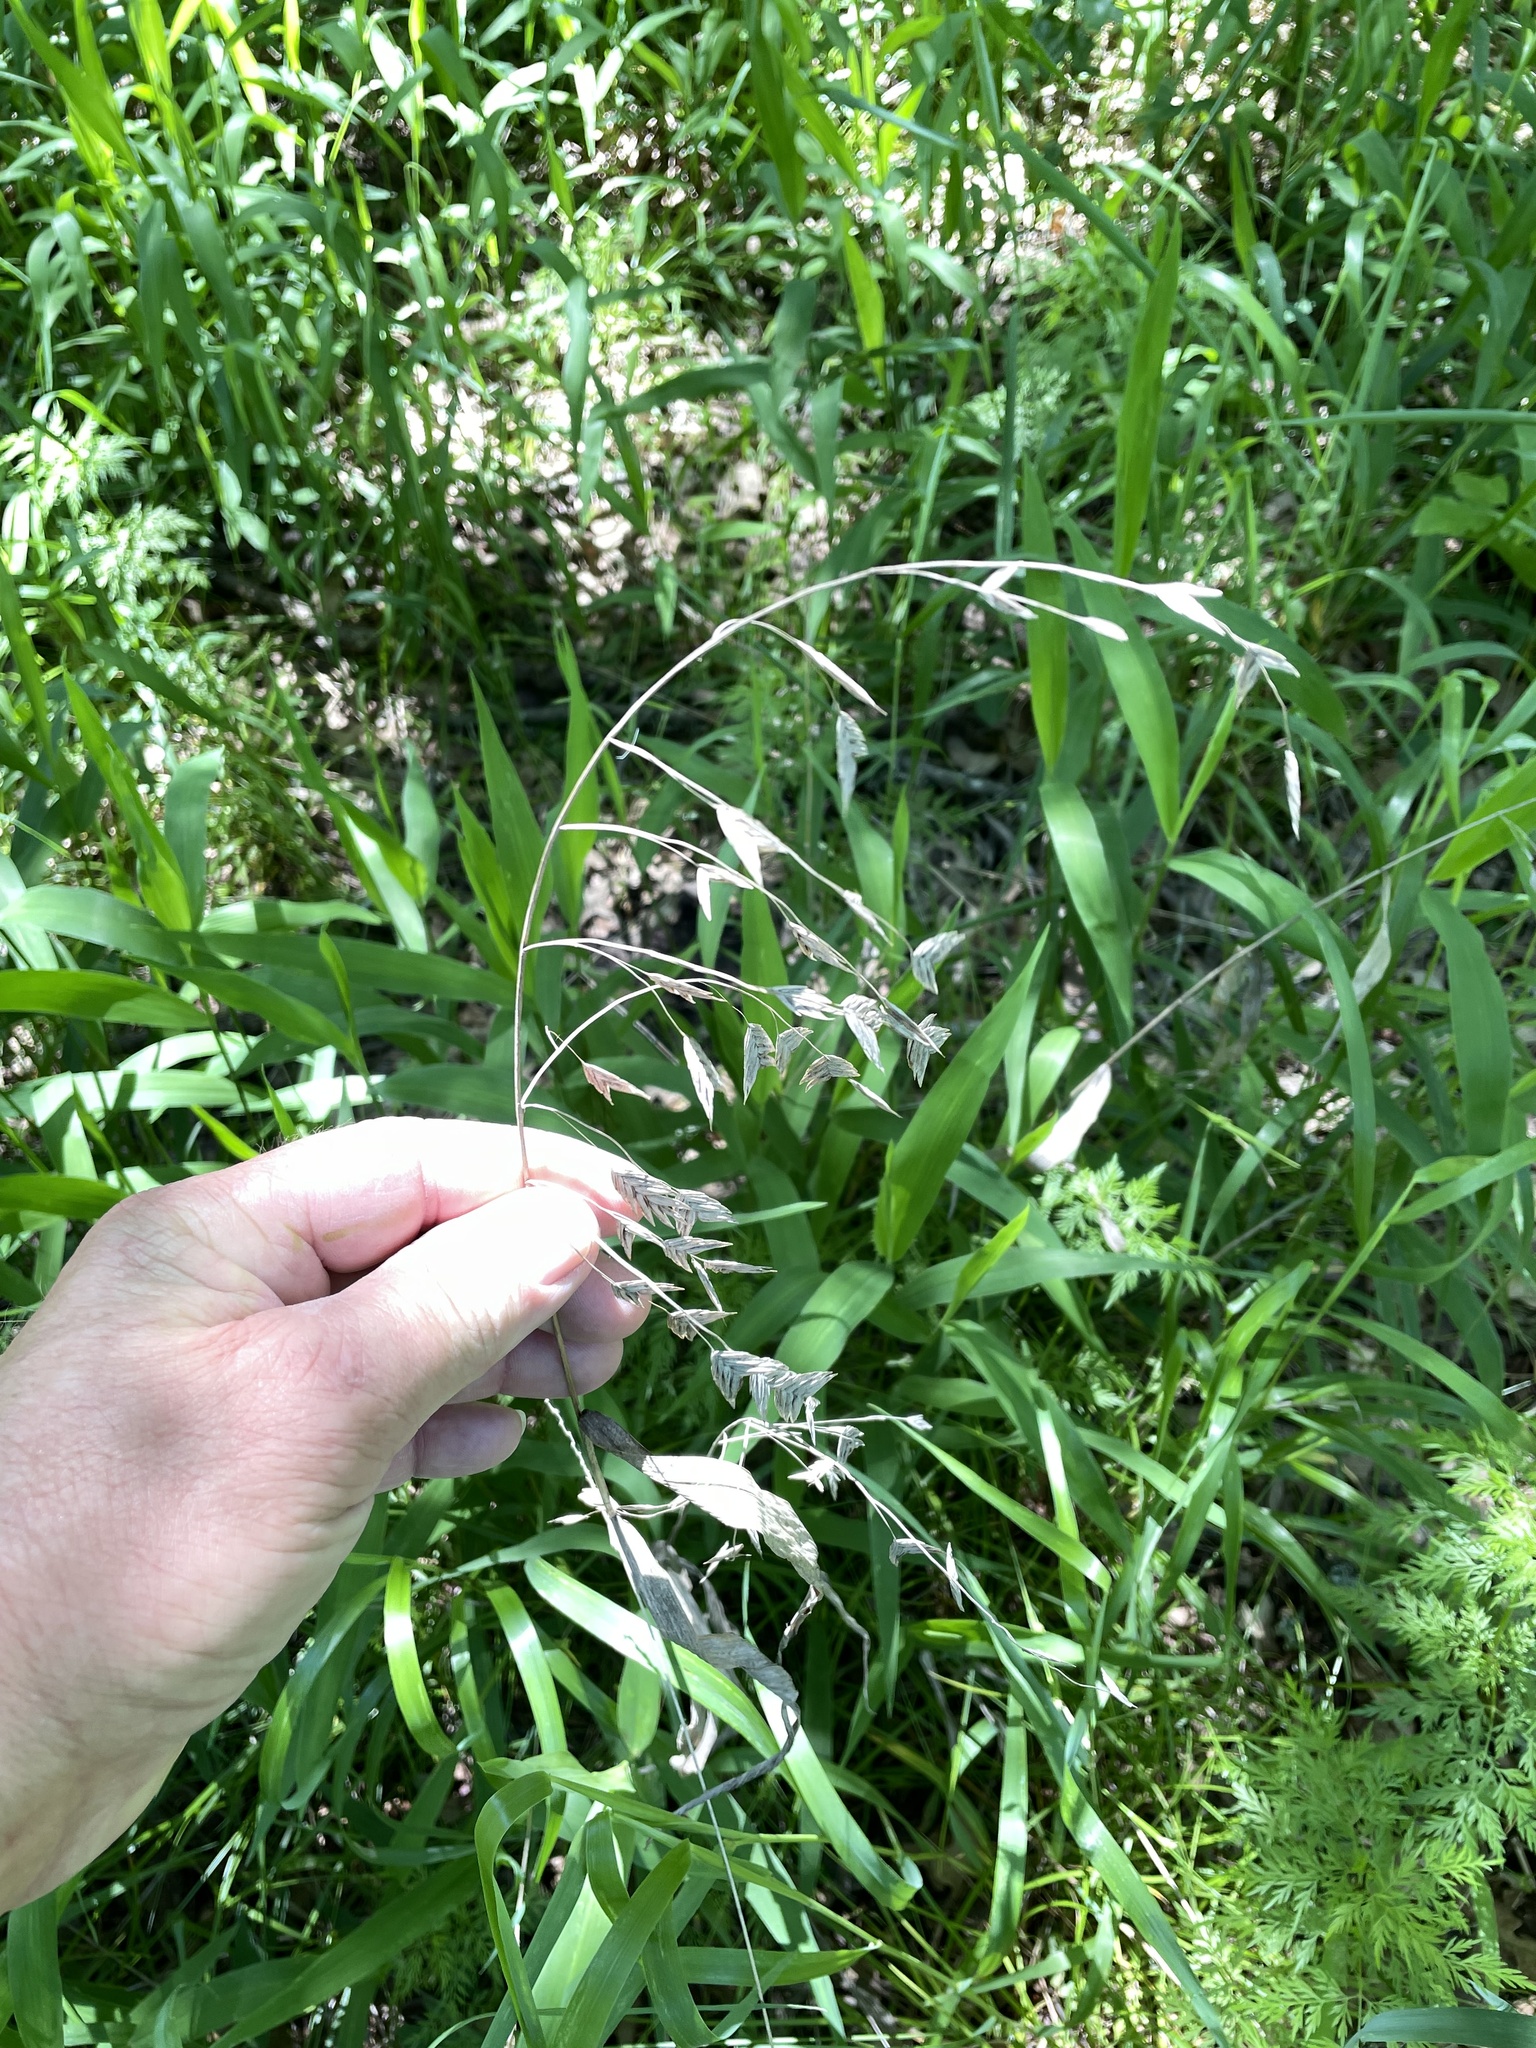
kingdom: Plantae
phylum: Tracheophyta
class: Liliopsida
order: Poales
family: Poaceae
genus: Chasmanthium
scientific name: Chasmanthium latifolium
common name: Broad-leaved chasmanthium
